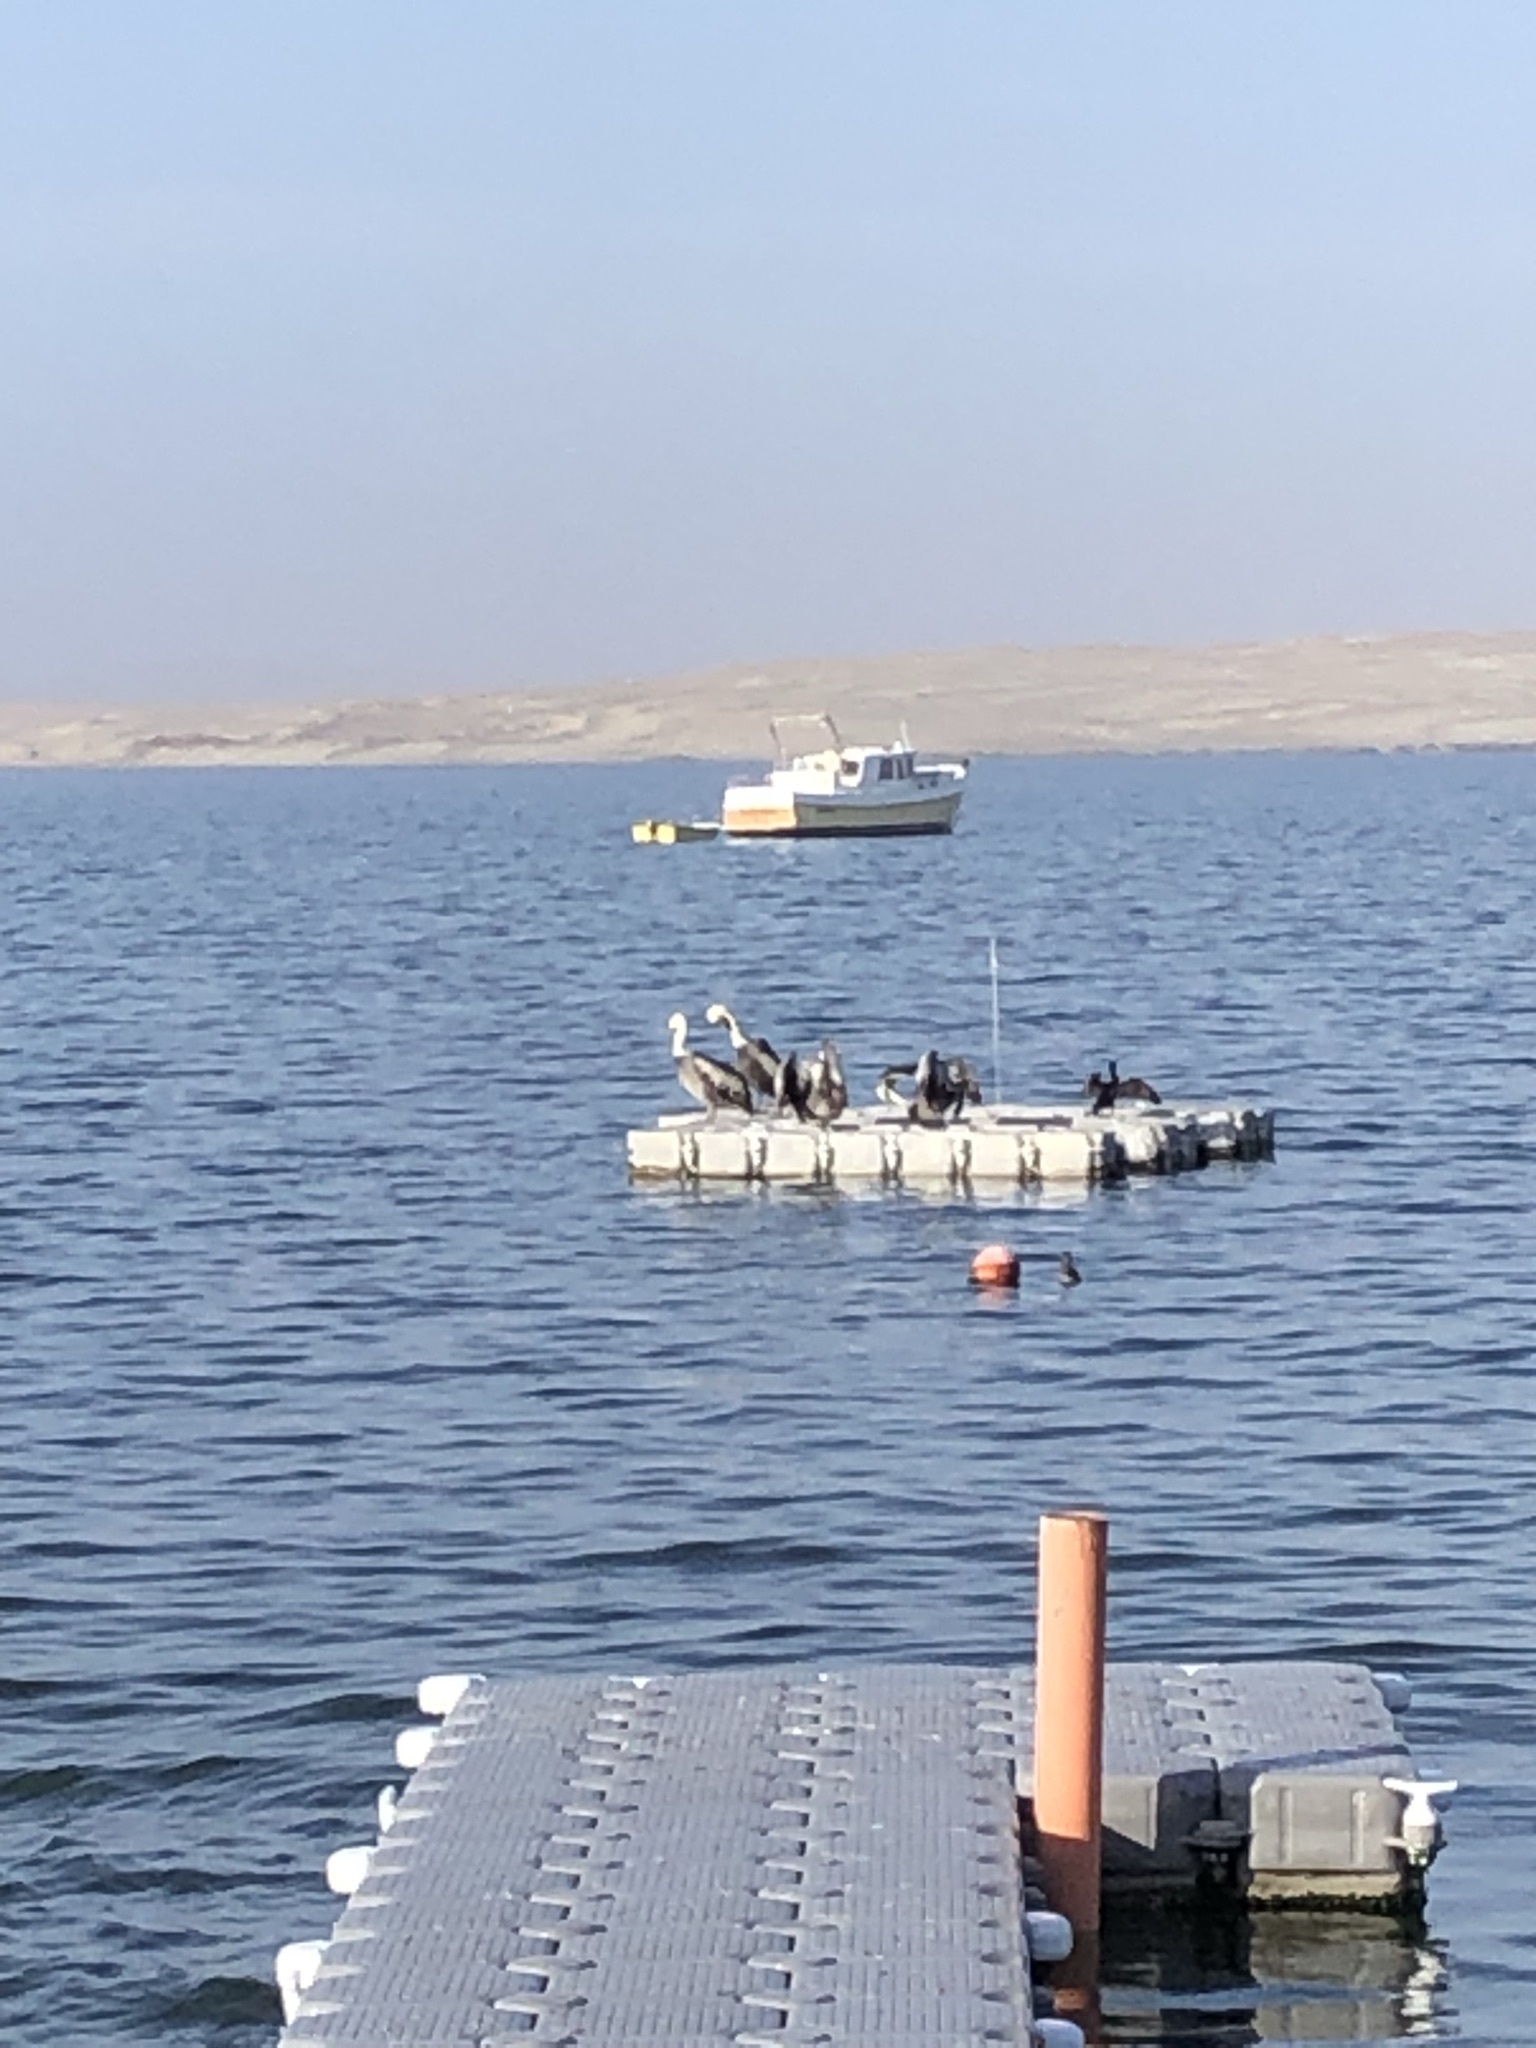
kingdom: Animalia
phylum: Chordata
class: Aves
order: Pelecaniformes
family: Pelecanidae
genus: Pelecanus
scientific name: Pelecanus thagus
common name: Peruvian pelican
